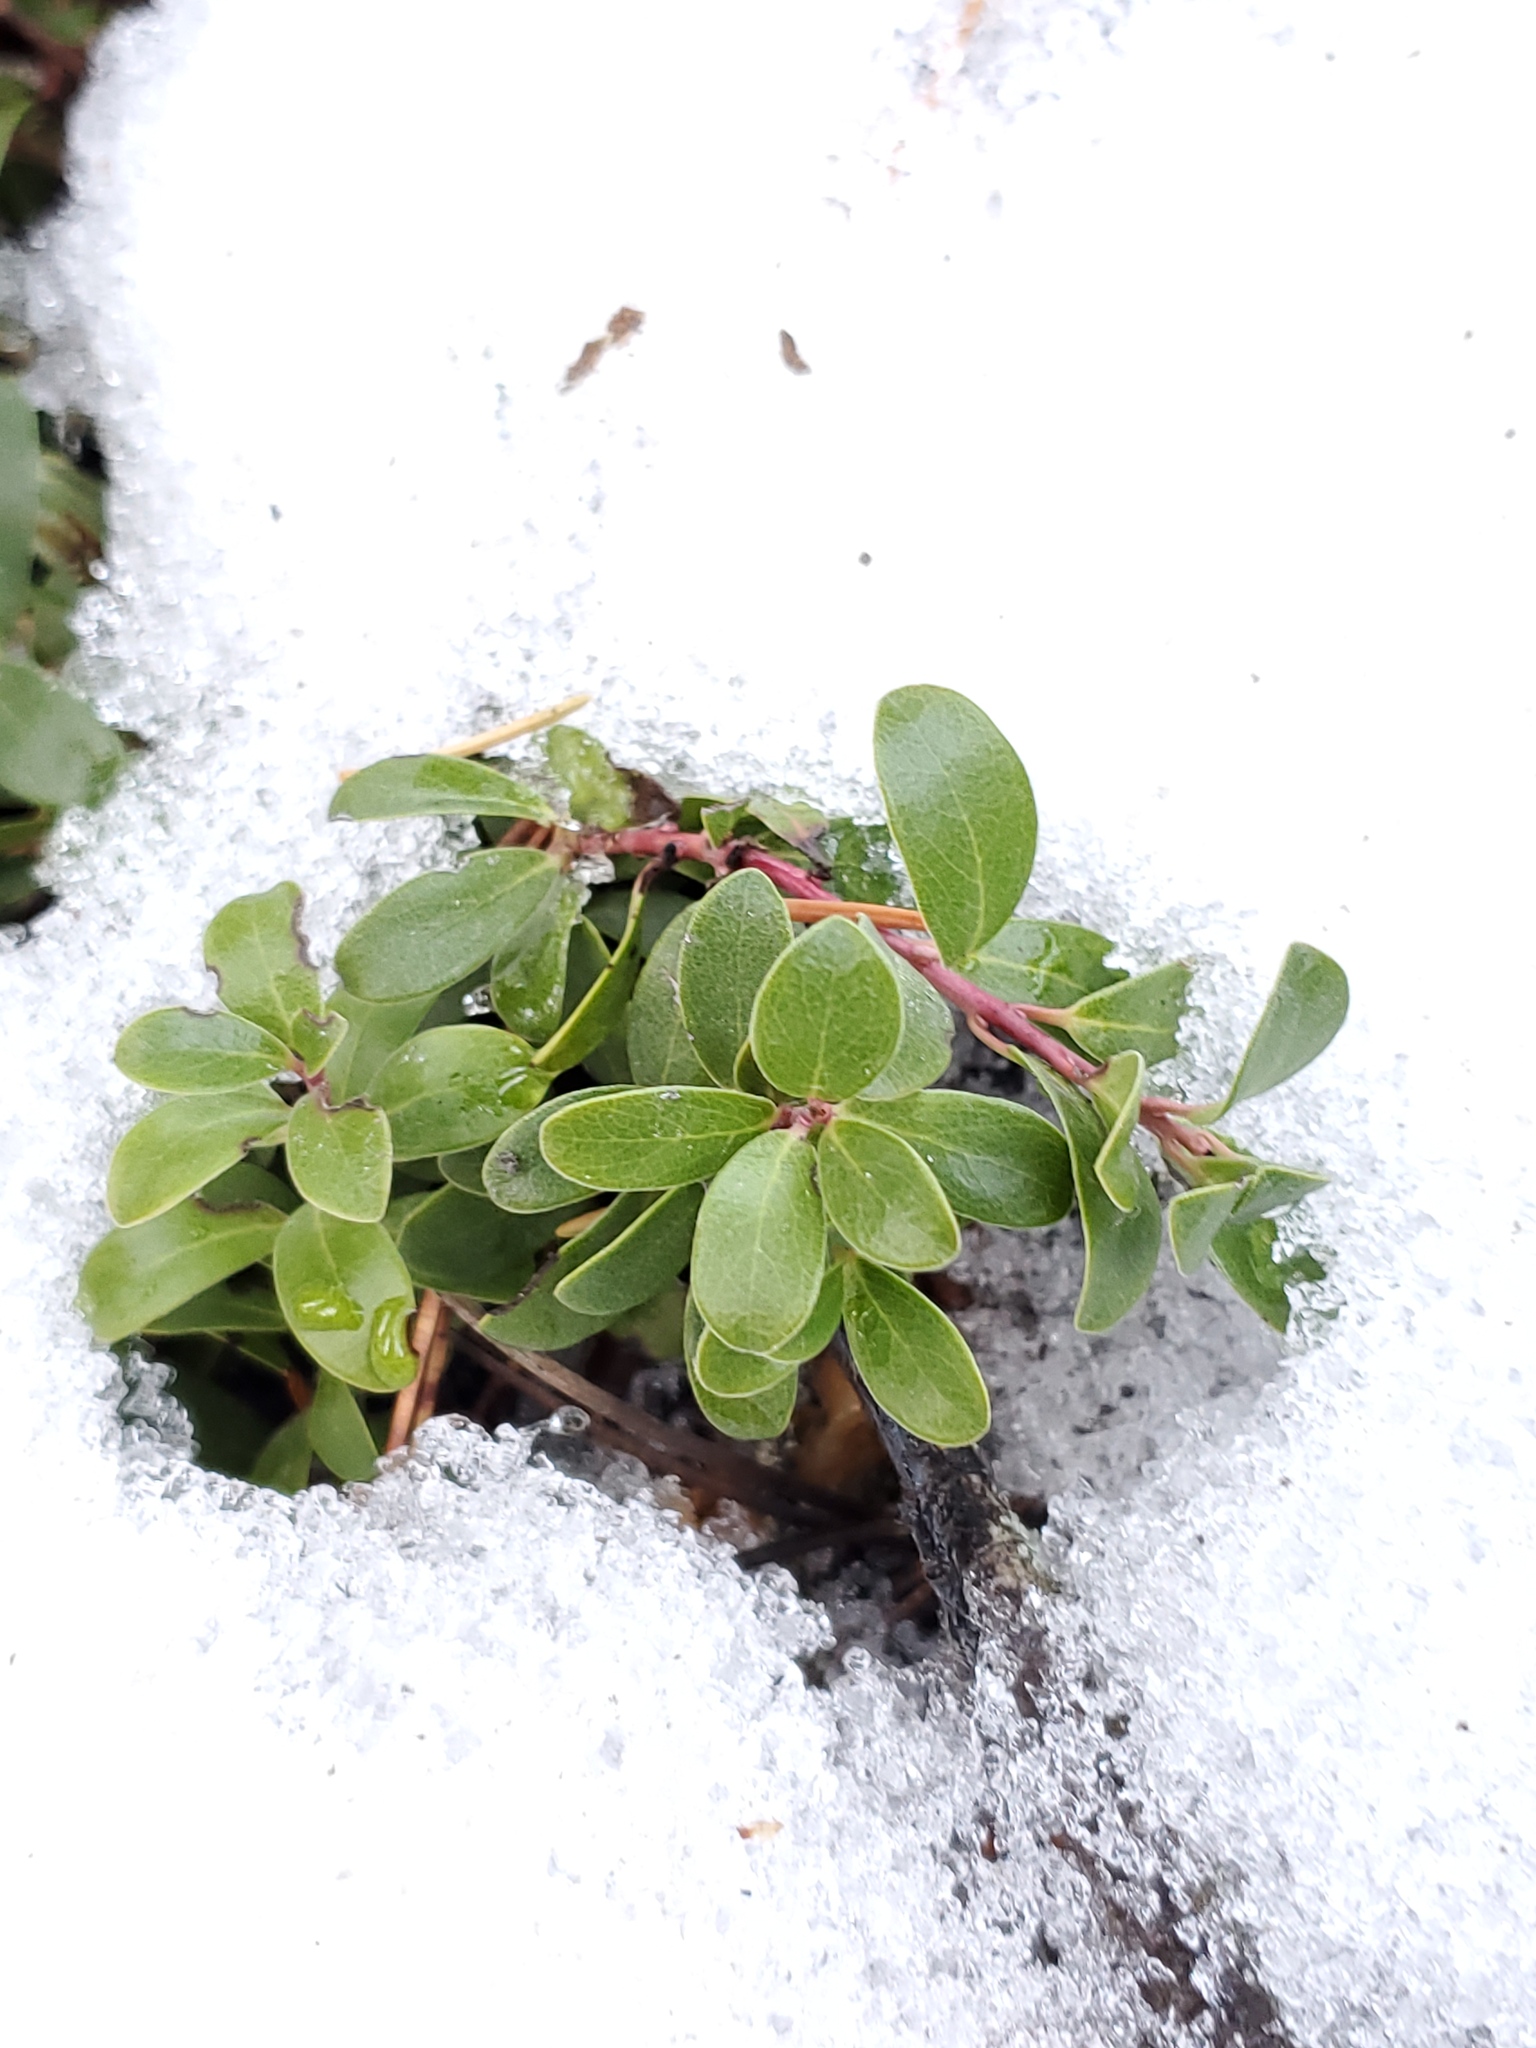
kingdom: Plantae
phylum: Tracheophyta
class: Magnoliopsida
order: Ericales
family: Ericaceae
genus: Arctostaphylos
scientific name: Arctostaphylos uva-ursi
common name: Bearberry
